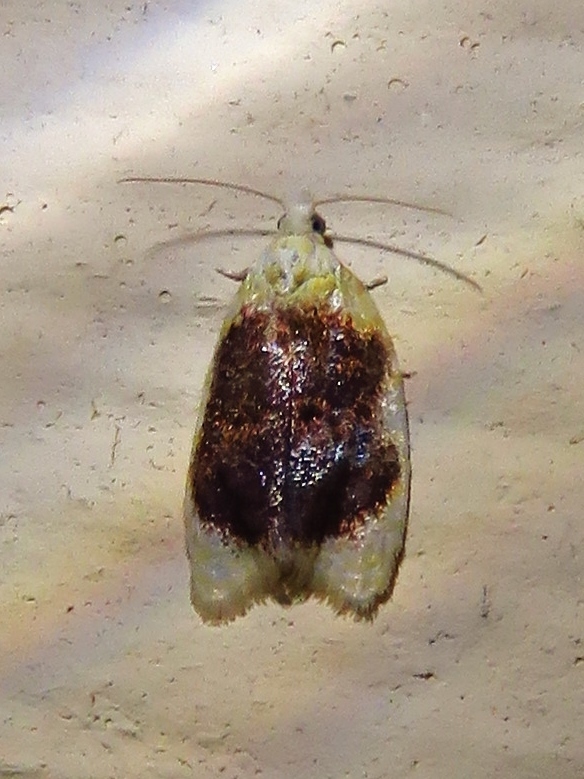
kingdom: Animalia
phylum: Arthropoda
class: Insecta
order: Lepidoptera
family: Tortricidae
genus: Acleris
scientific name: Acleris semipurpurana
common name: Oak leaftier moth
